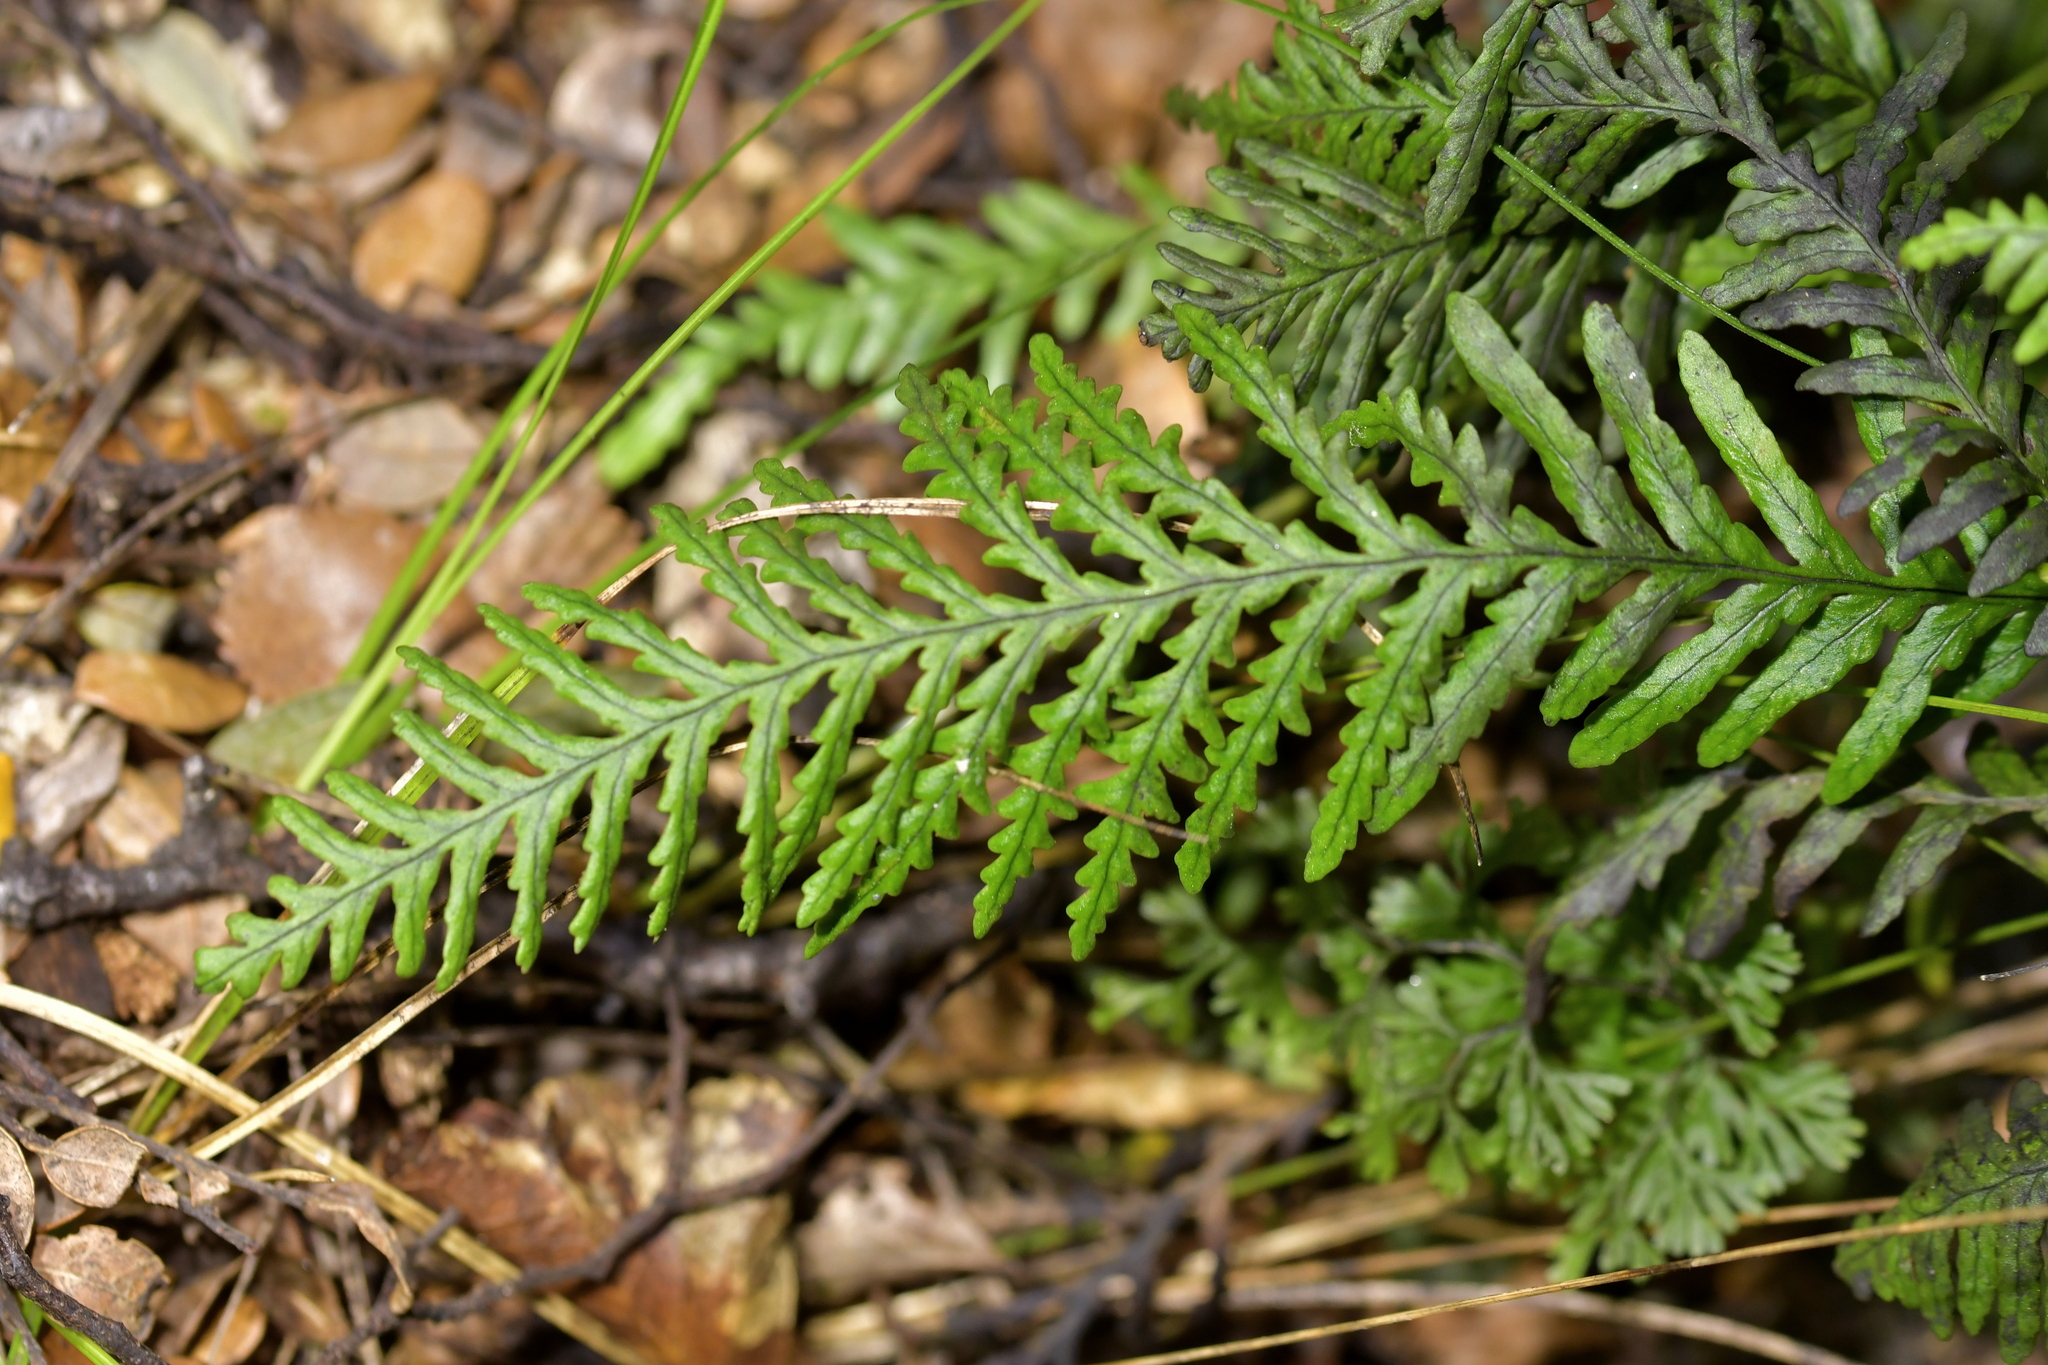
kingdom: Plantae
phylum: Tracheophyta
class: Polypodiopsida
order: Polypodiales
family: Polypodiaceae
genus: Notogrammitis
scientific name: Notogrammitis heterophylla
